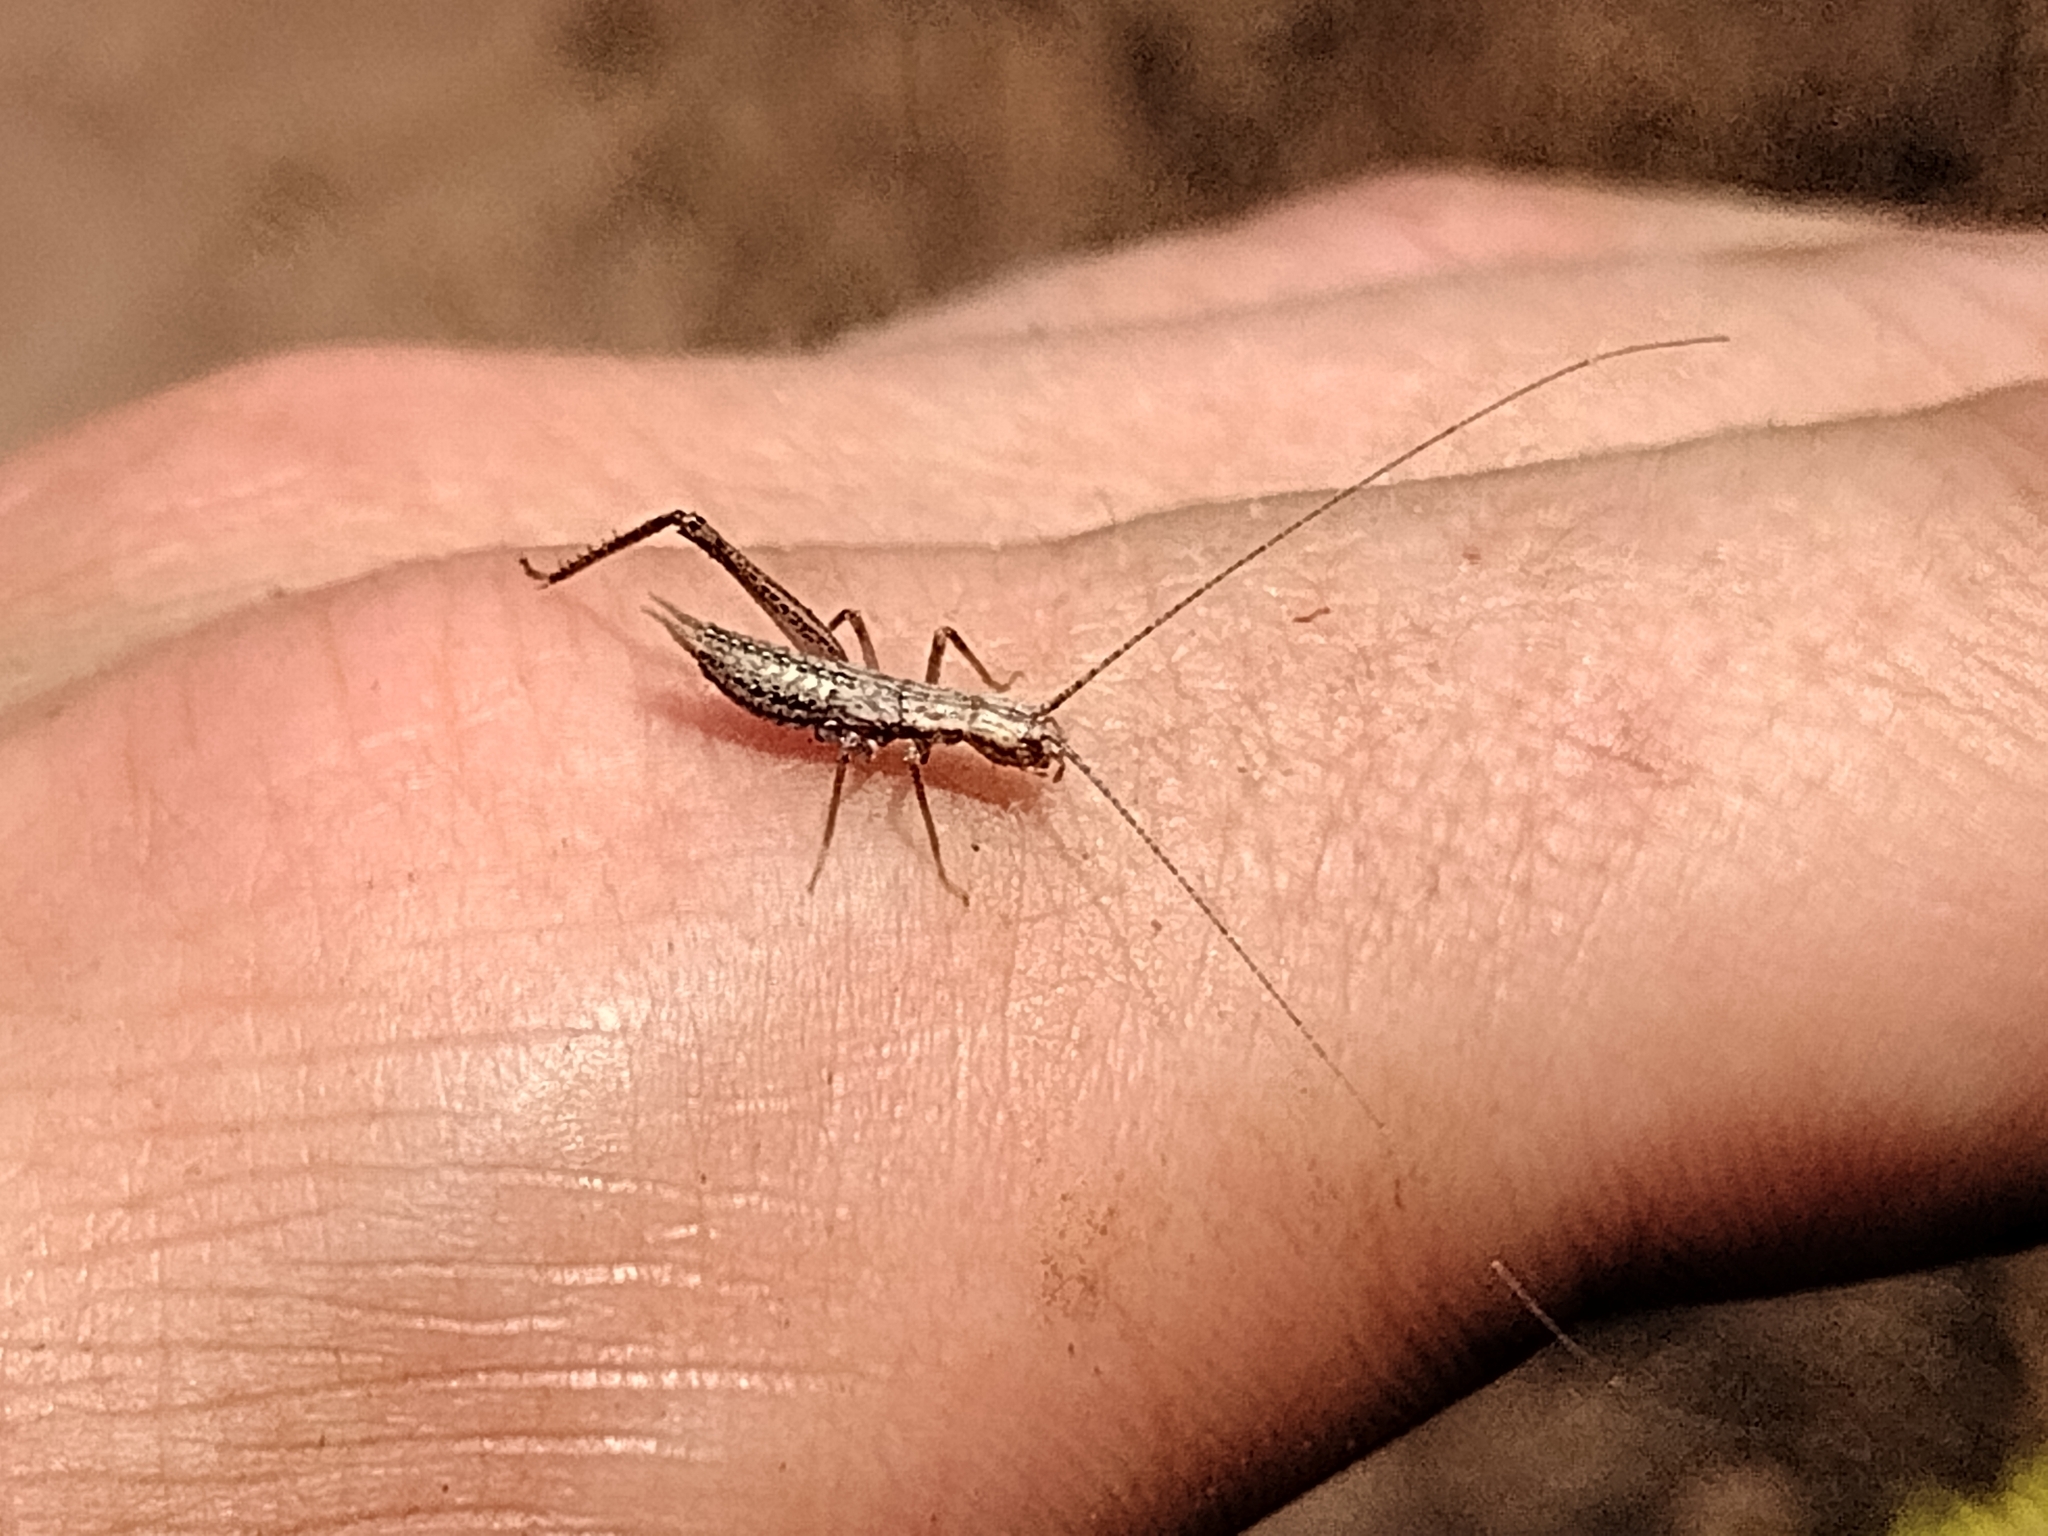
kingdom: Animalia
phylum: Arthropoda
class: Insecta
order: Orthoptera
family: Gryllidae
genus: Oecanthus
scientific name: Oecanthus californicus
